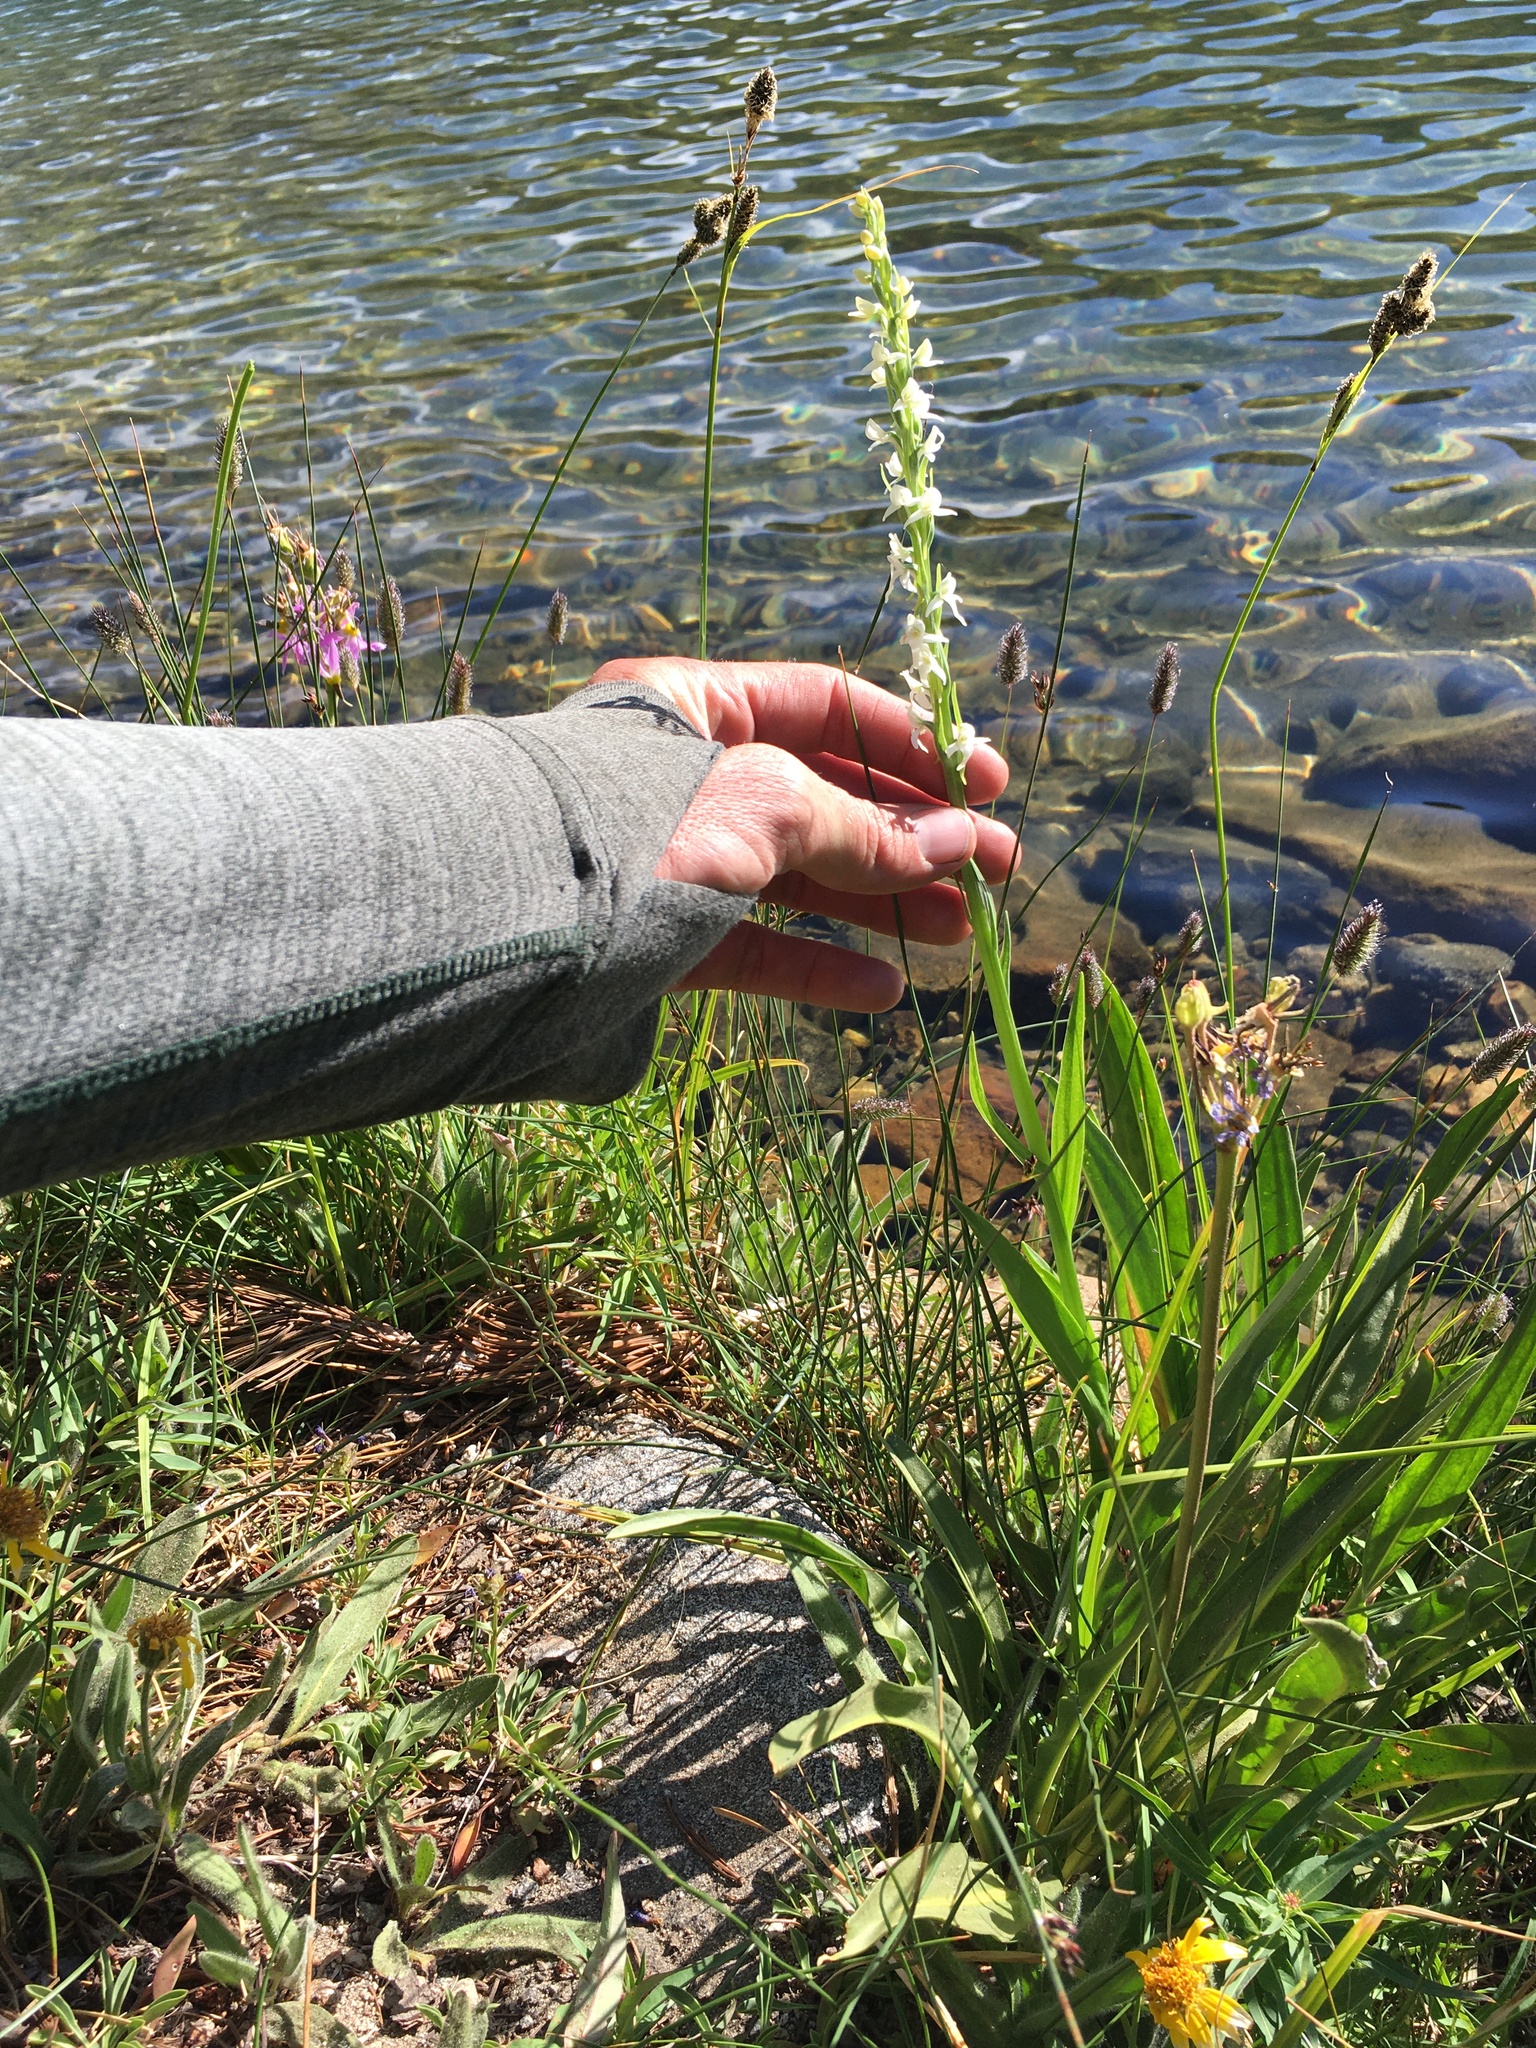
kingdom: Plantae
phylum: Tracheophyta
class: Liliopsida
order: Asparagales
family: Orchidaceae
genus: Platanthera
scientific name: Platanthera dilatata
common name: Bog candles
